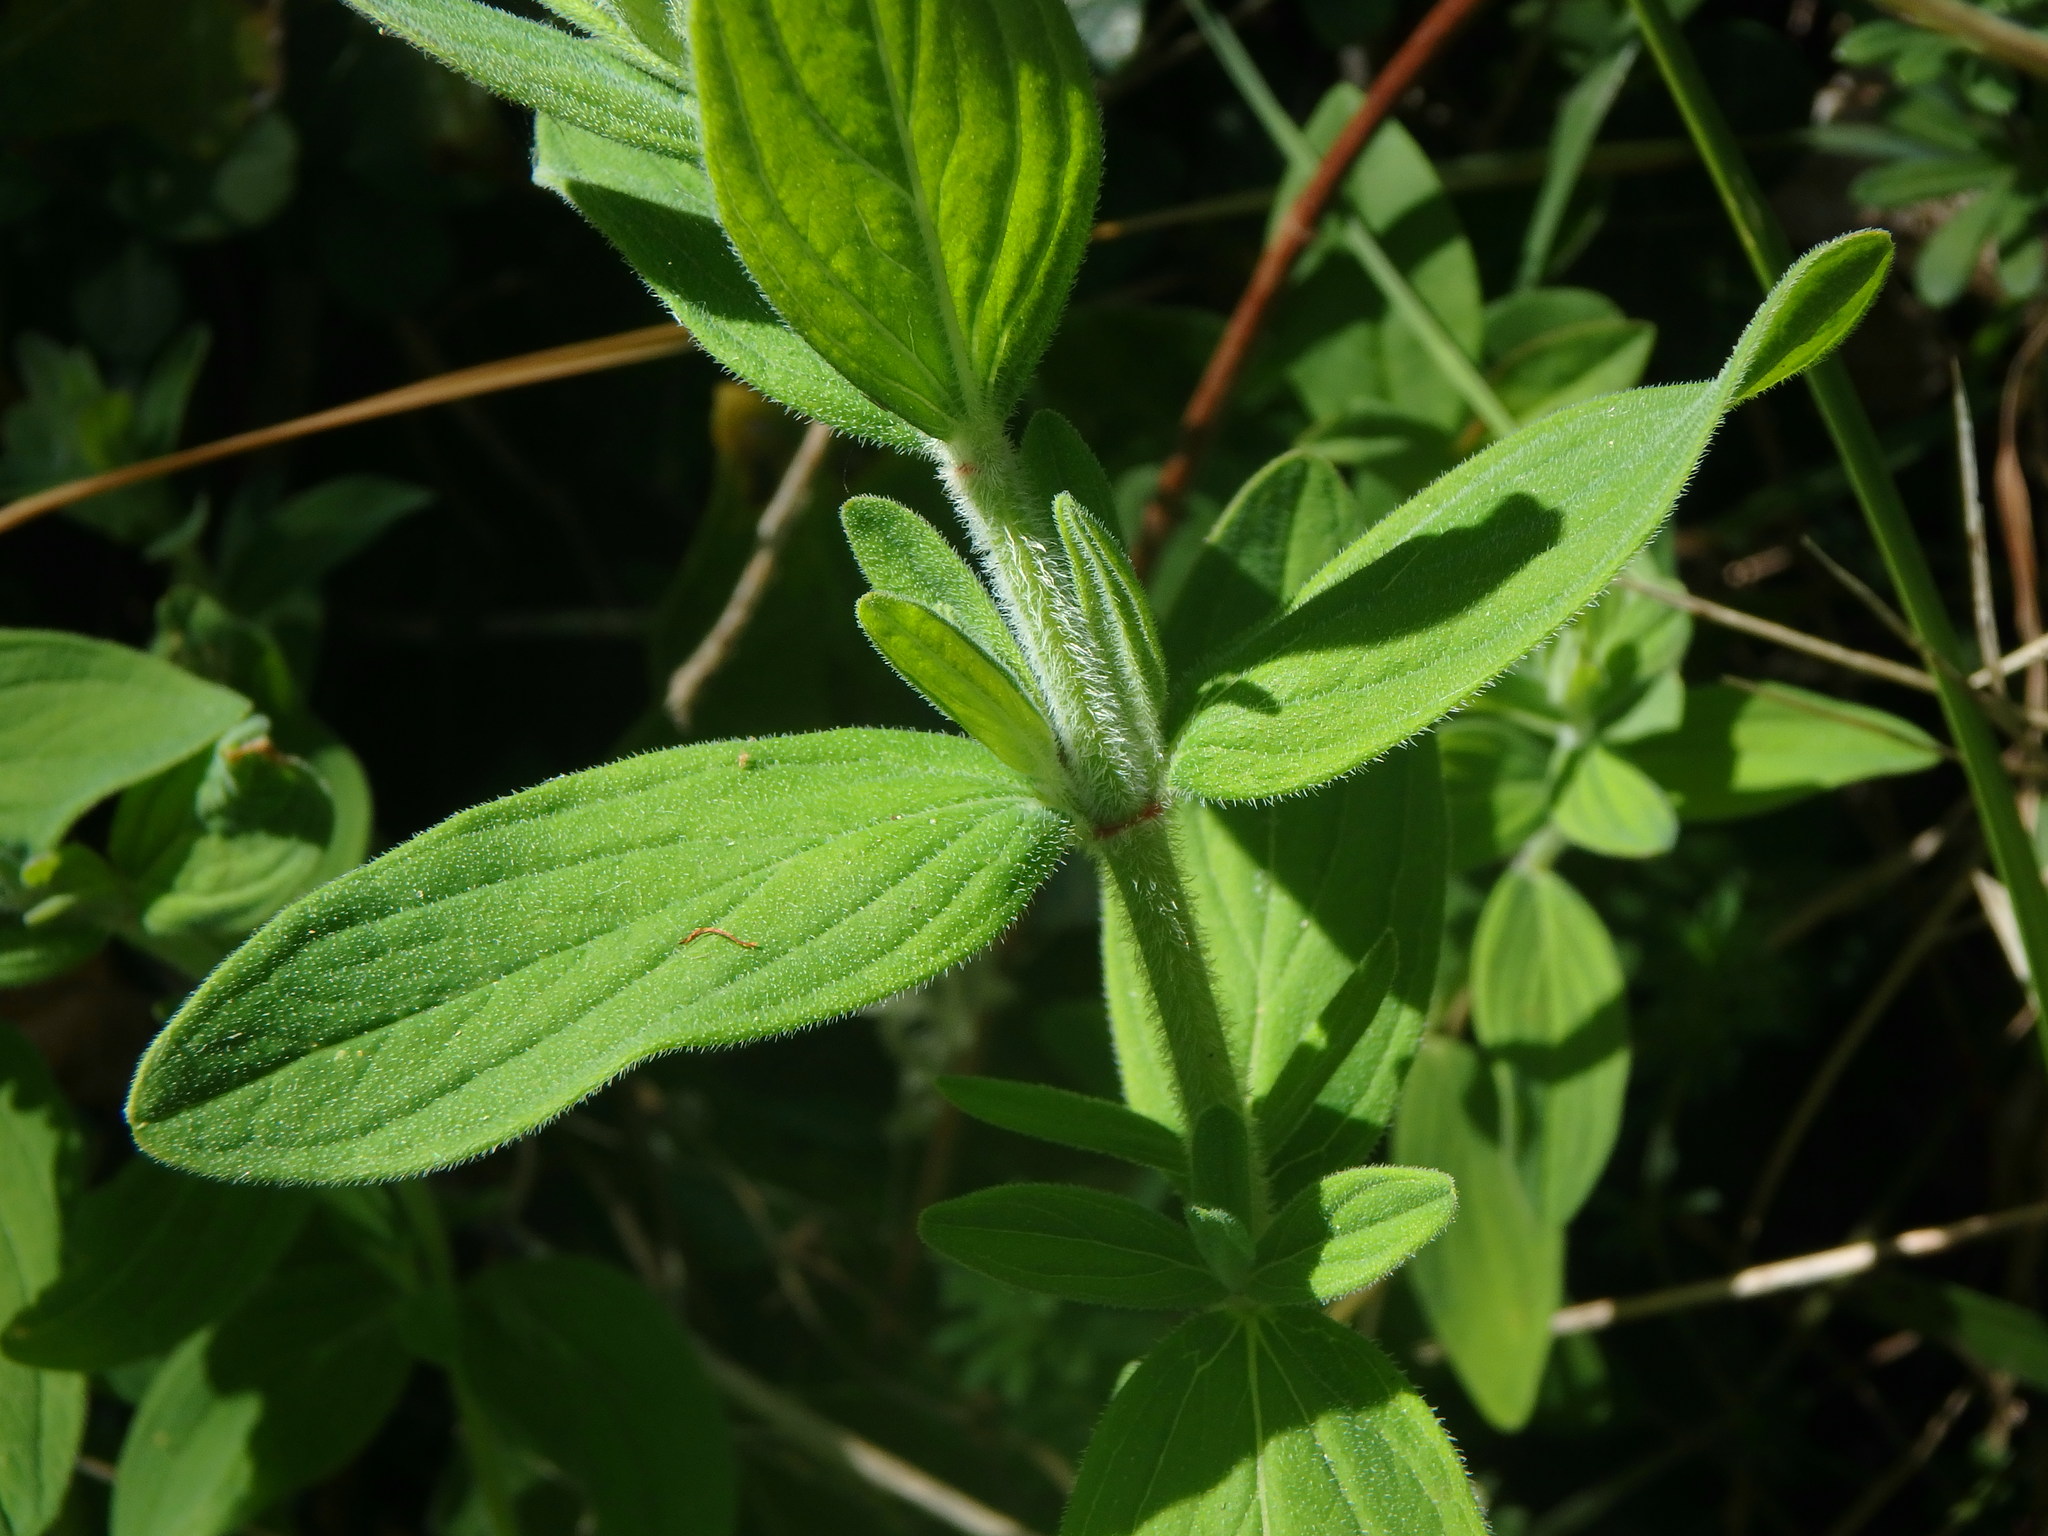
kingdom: Plantae
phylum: Tracheophyta
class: Magnoliopsida
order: Malpighiales
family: Hypericaceae
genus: Hypericum
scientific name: Hypericum hirsutum
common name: Hairy st. john's-wort
